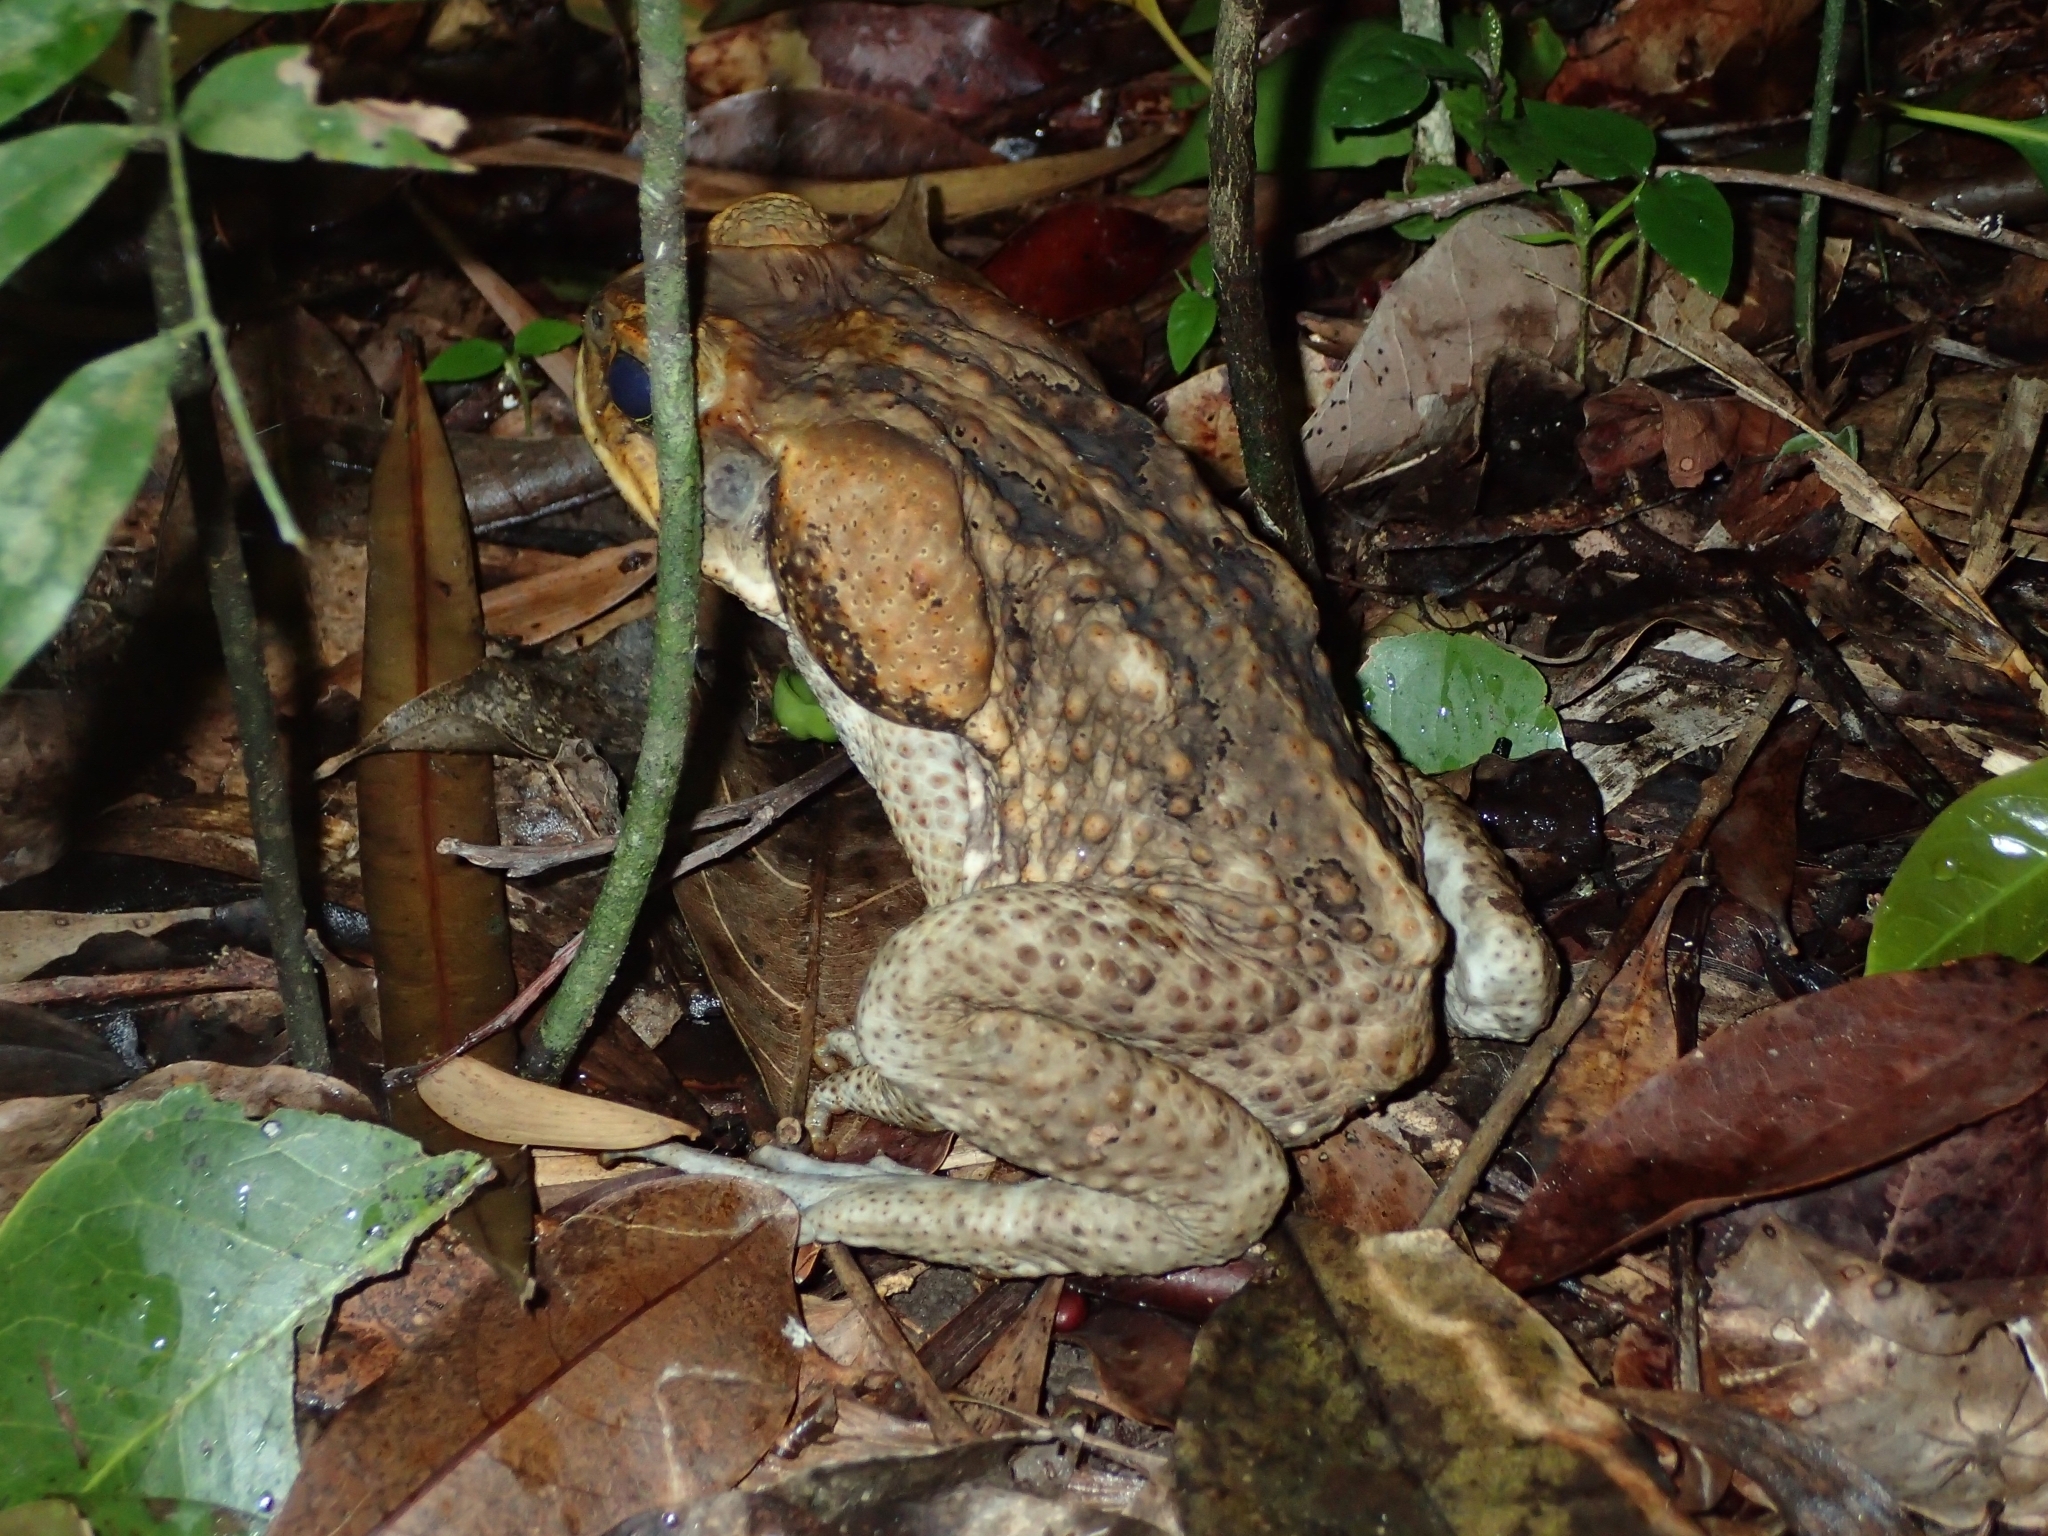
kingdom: Animalia
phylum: Chordata
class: Amphibia
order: Anura
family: Bufonidae
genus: Rhinella
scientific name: Rhinella marina
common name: Cane toad
